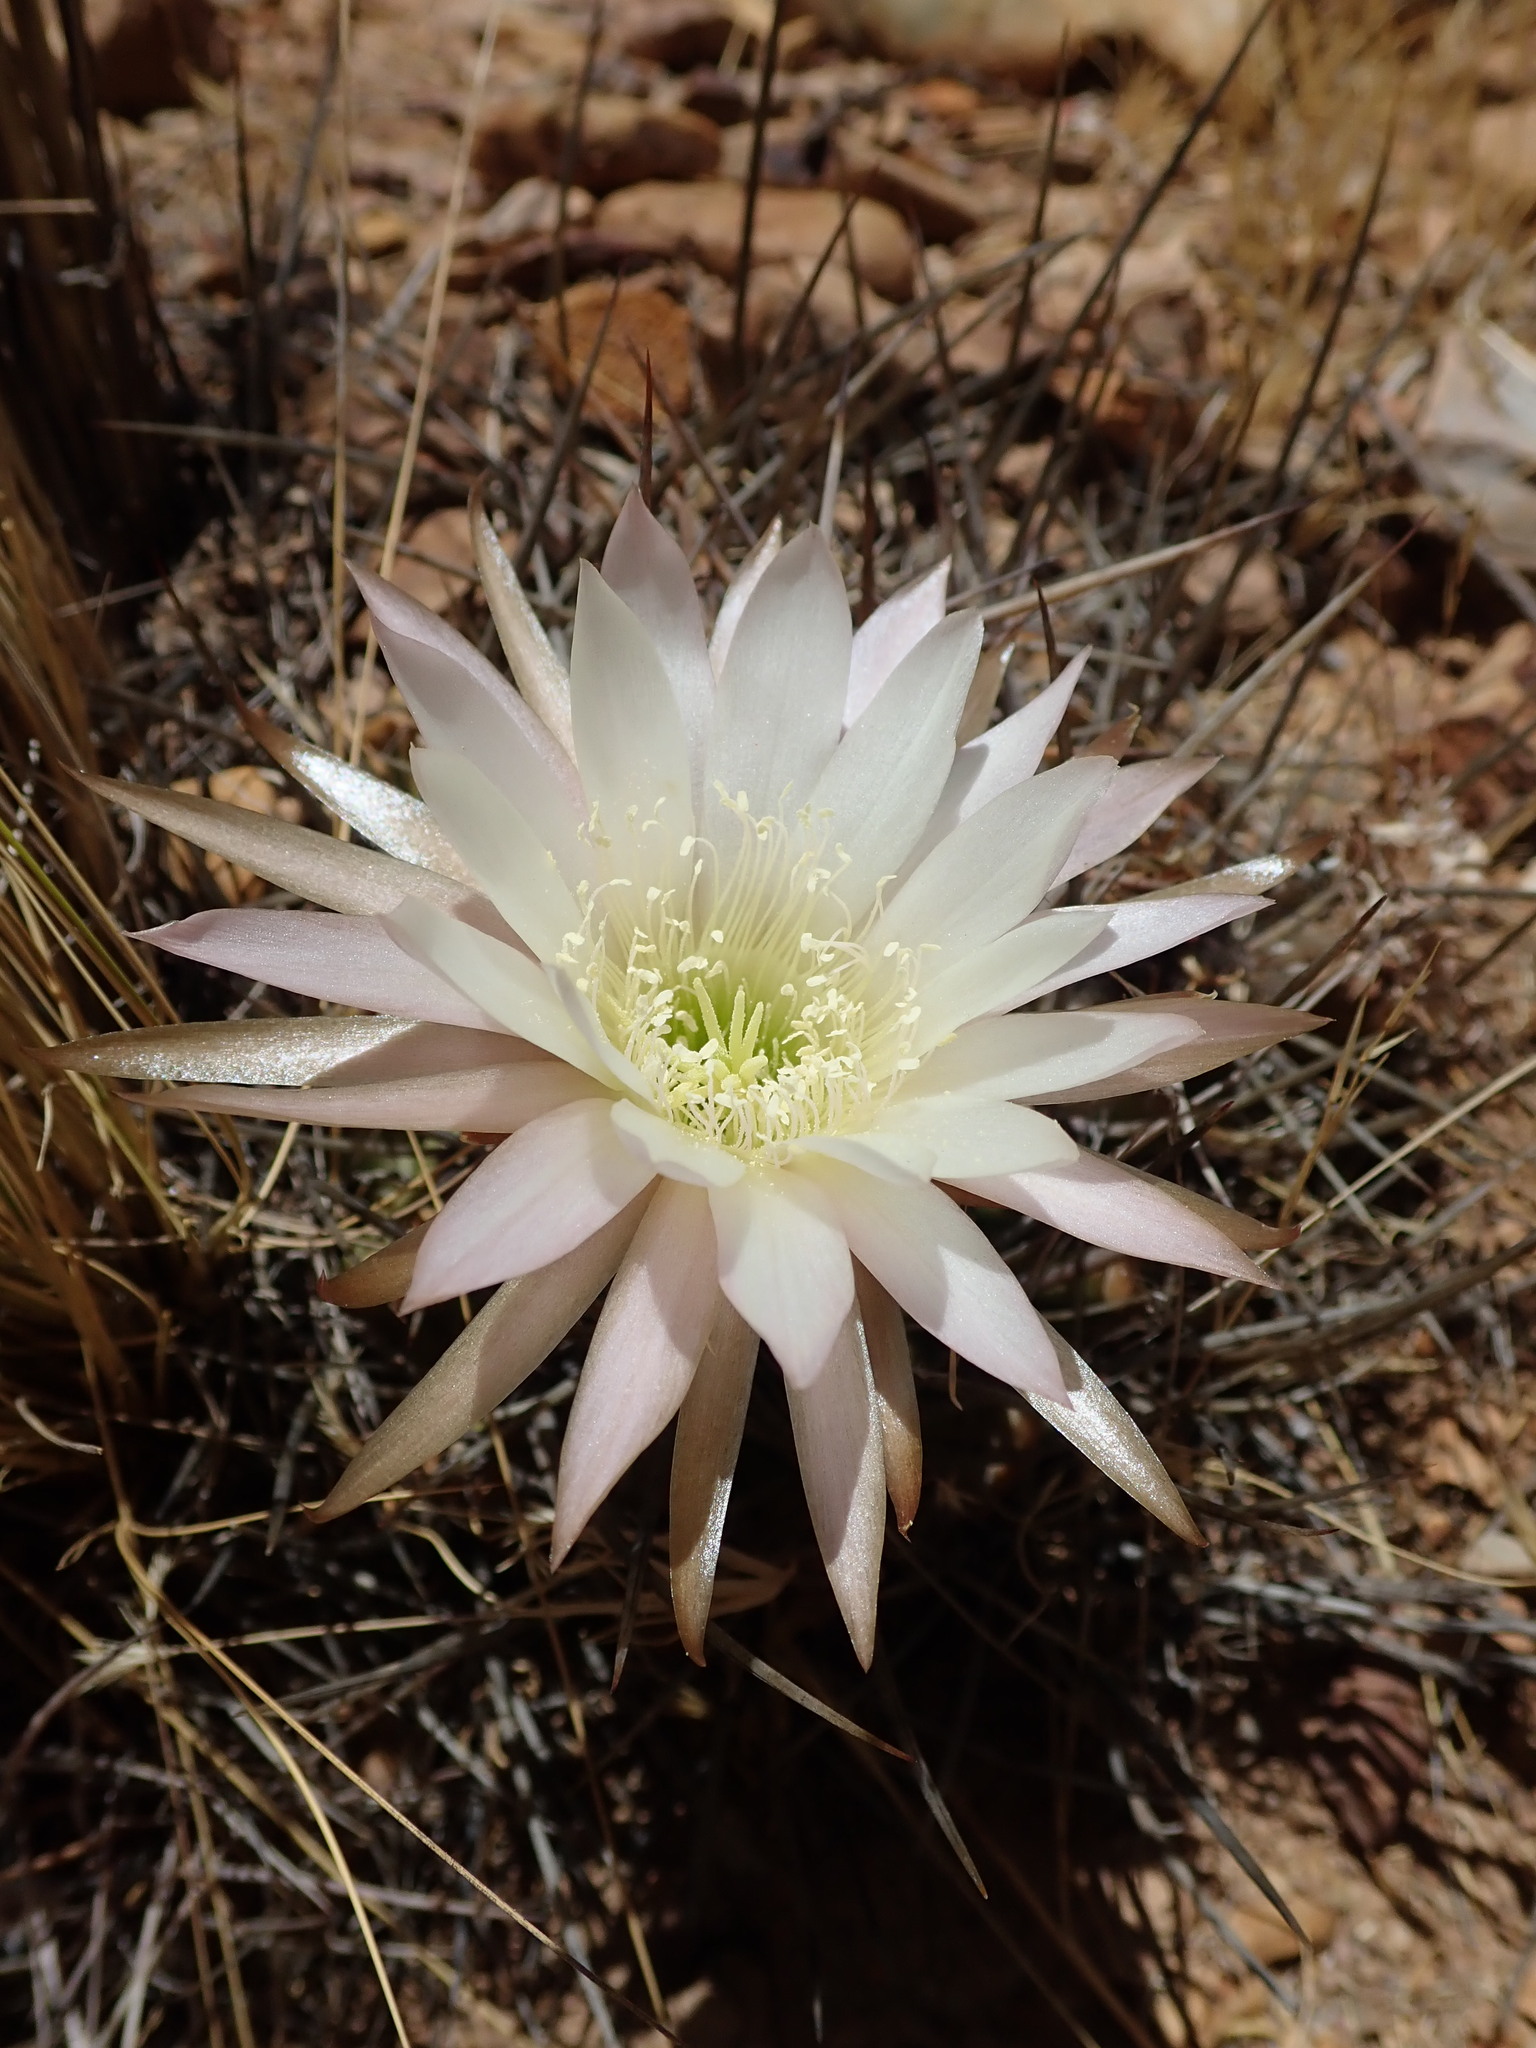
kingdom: Plantae
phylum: Tracheophyta
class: Magnoliopsida
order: Caryophyllales
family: Cactaceae
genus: Lobivia
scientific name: Lobivia ferox
